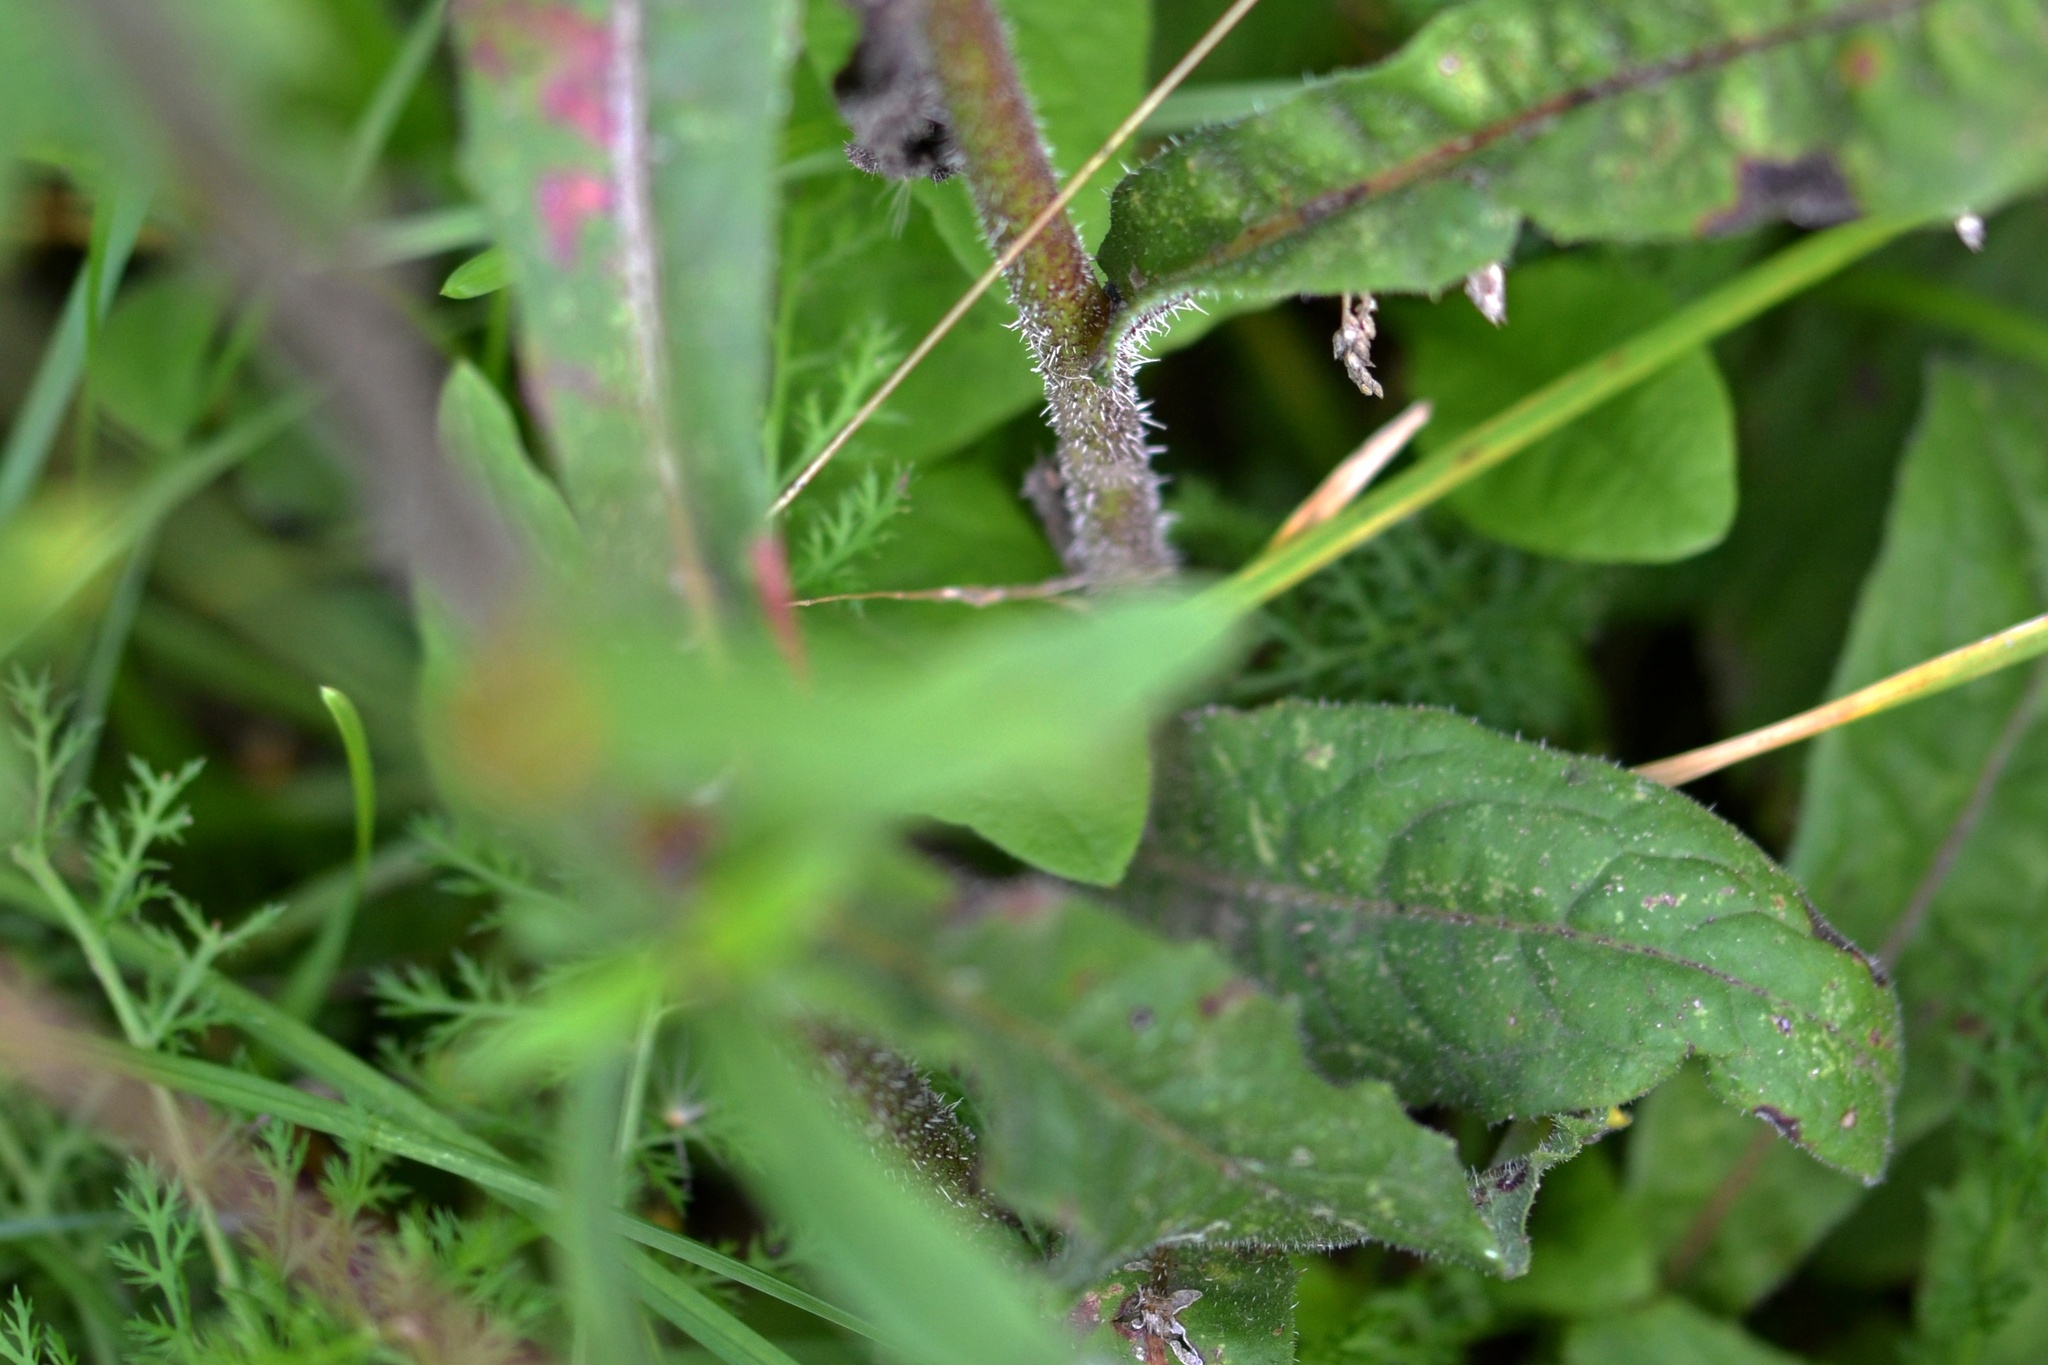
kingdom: Plantae
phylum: Tracheophyta
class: Magnoliopsida
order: Asterales
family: Asteraceae
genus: Picris
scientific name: Picris hieracioides
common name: Hawkweed oxtongue
